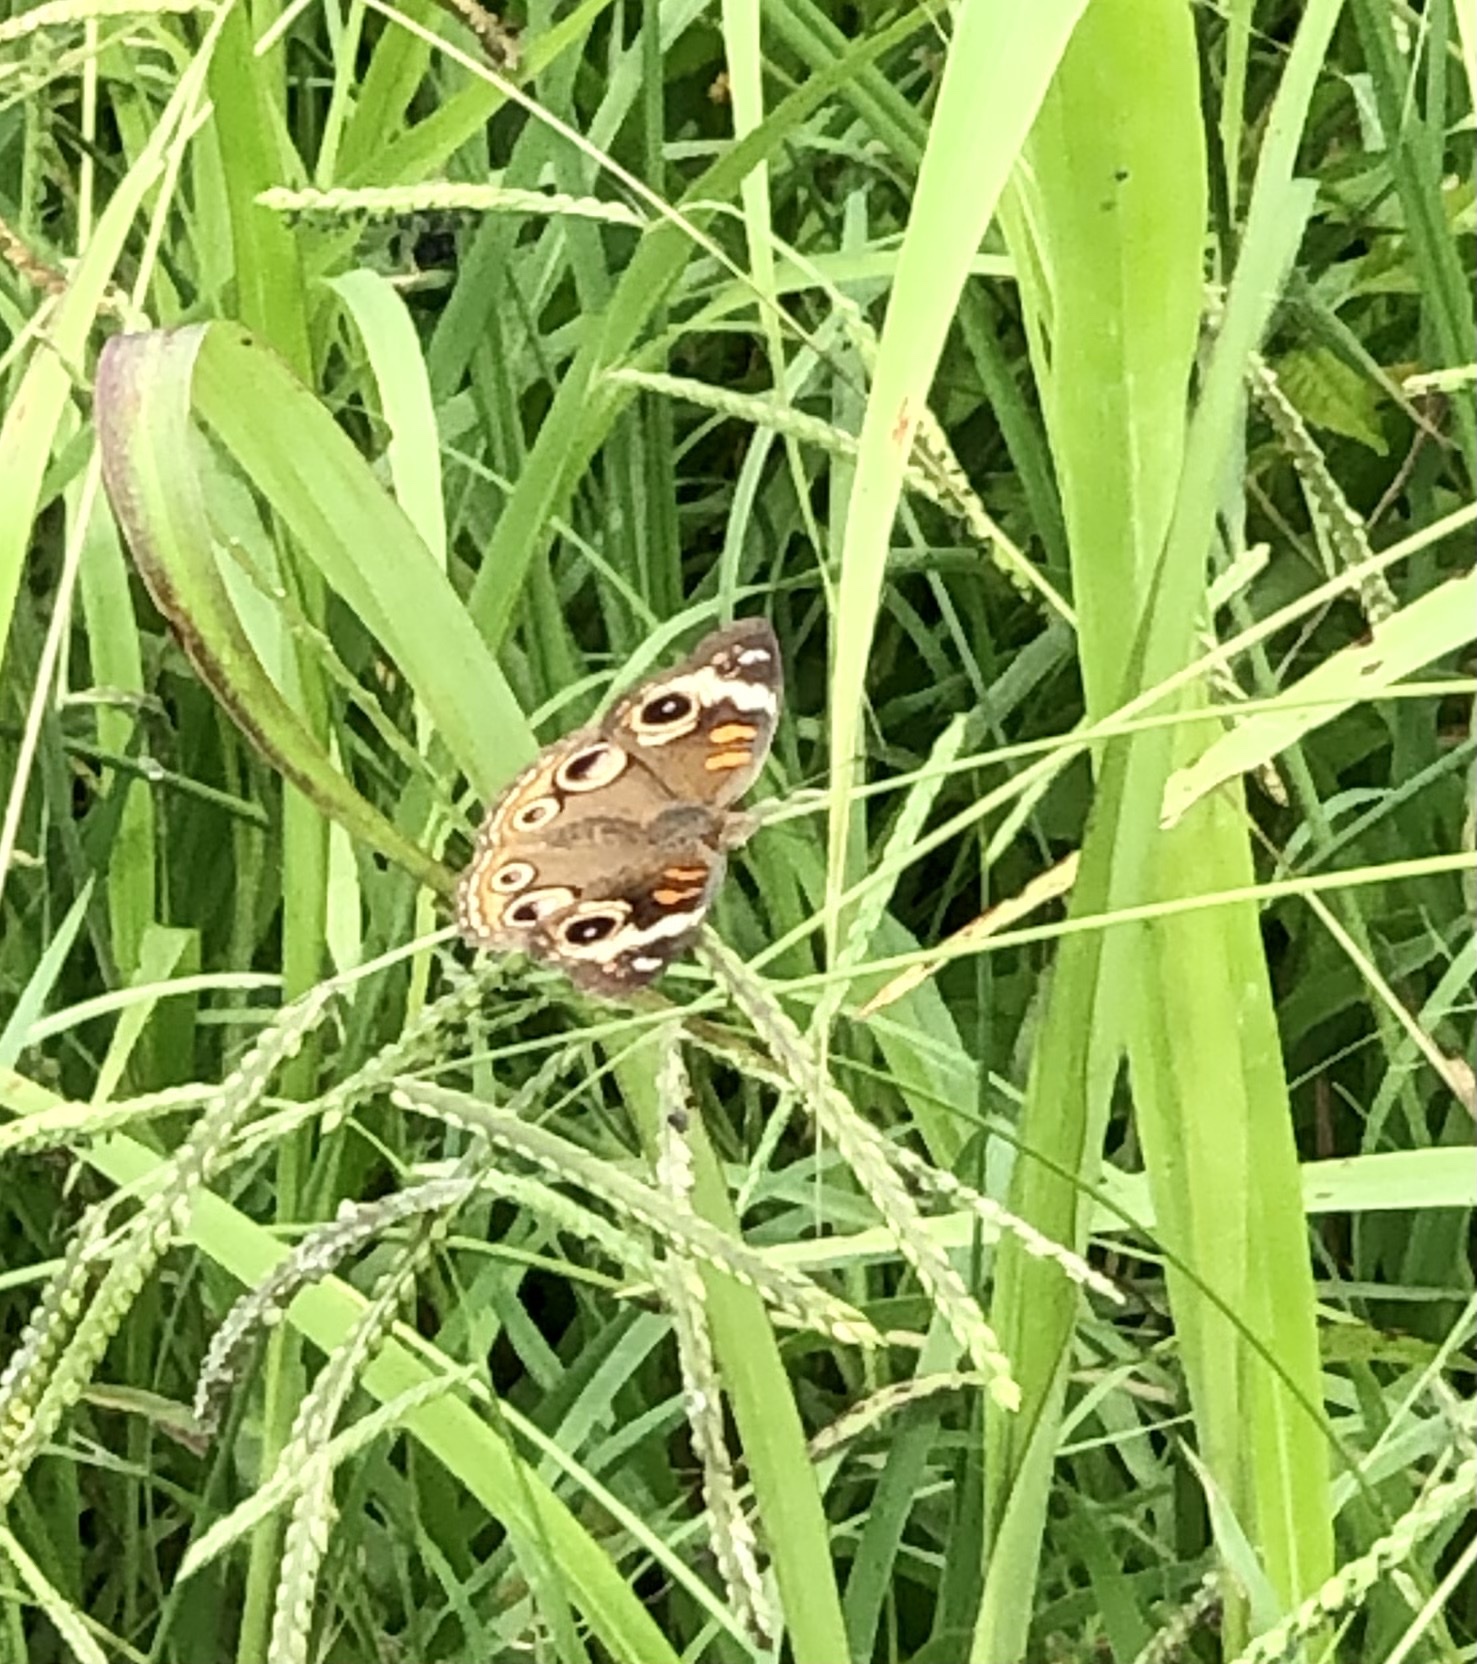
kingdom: Animalia
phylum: Arthropoda
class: Insecta
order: Lepidoptera
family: Nymphalidae
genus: Junonia
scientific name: Junonia coenia
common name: Common buckeye
